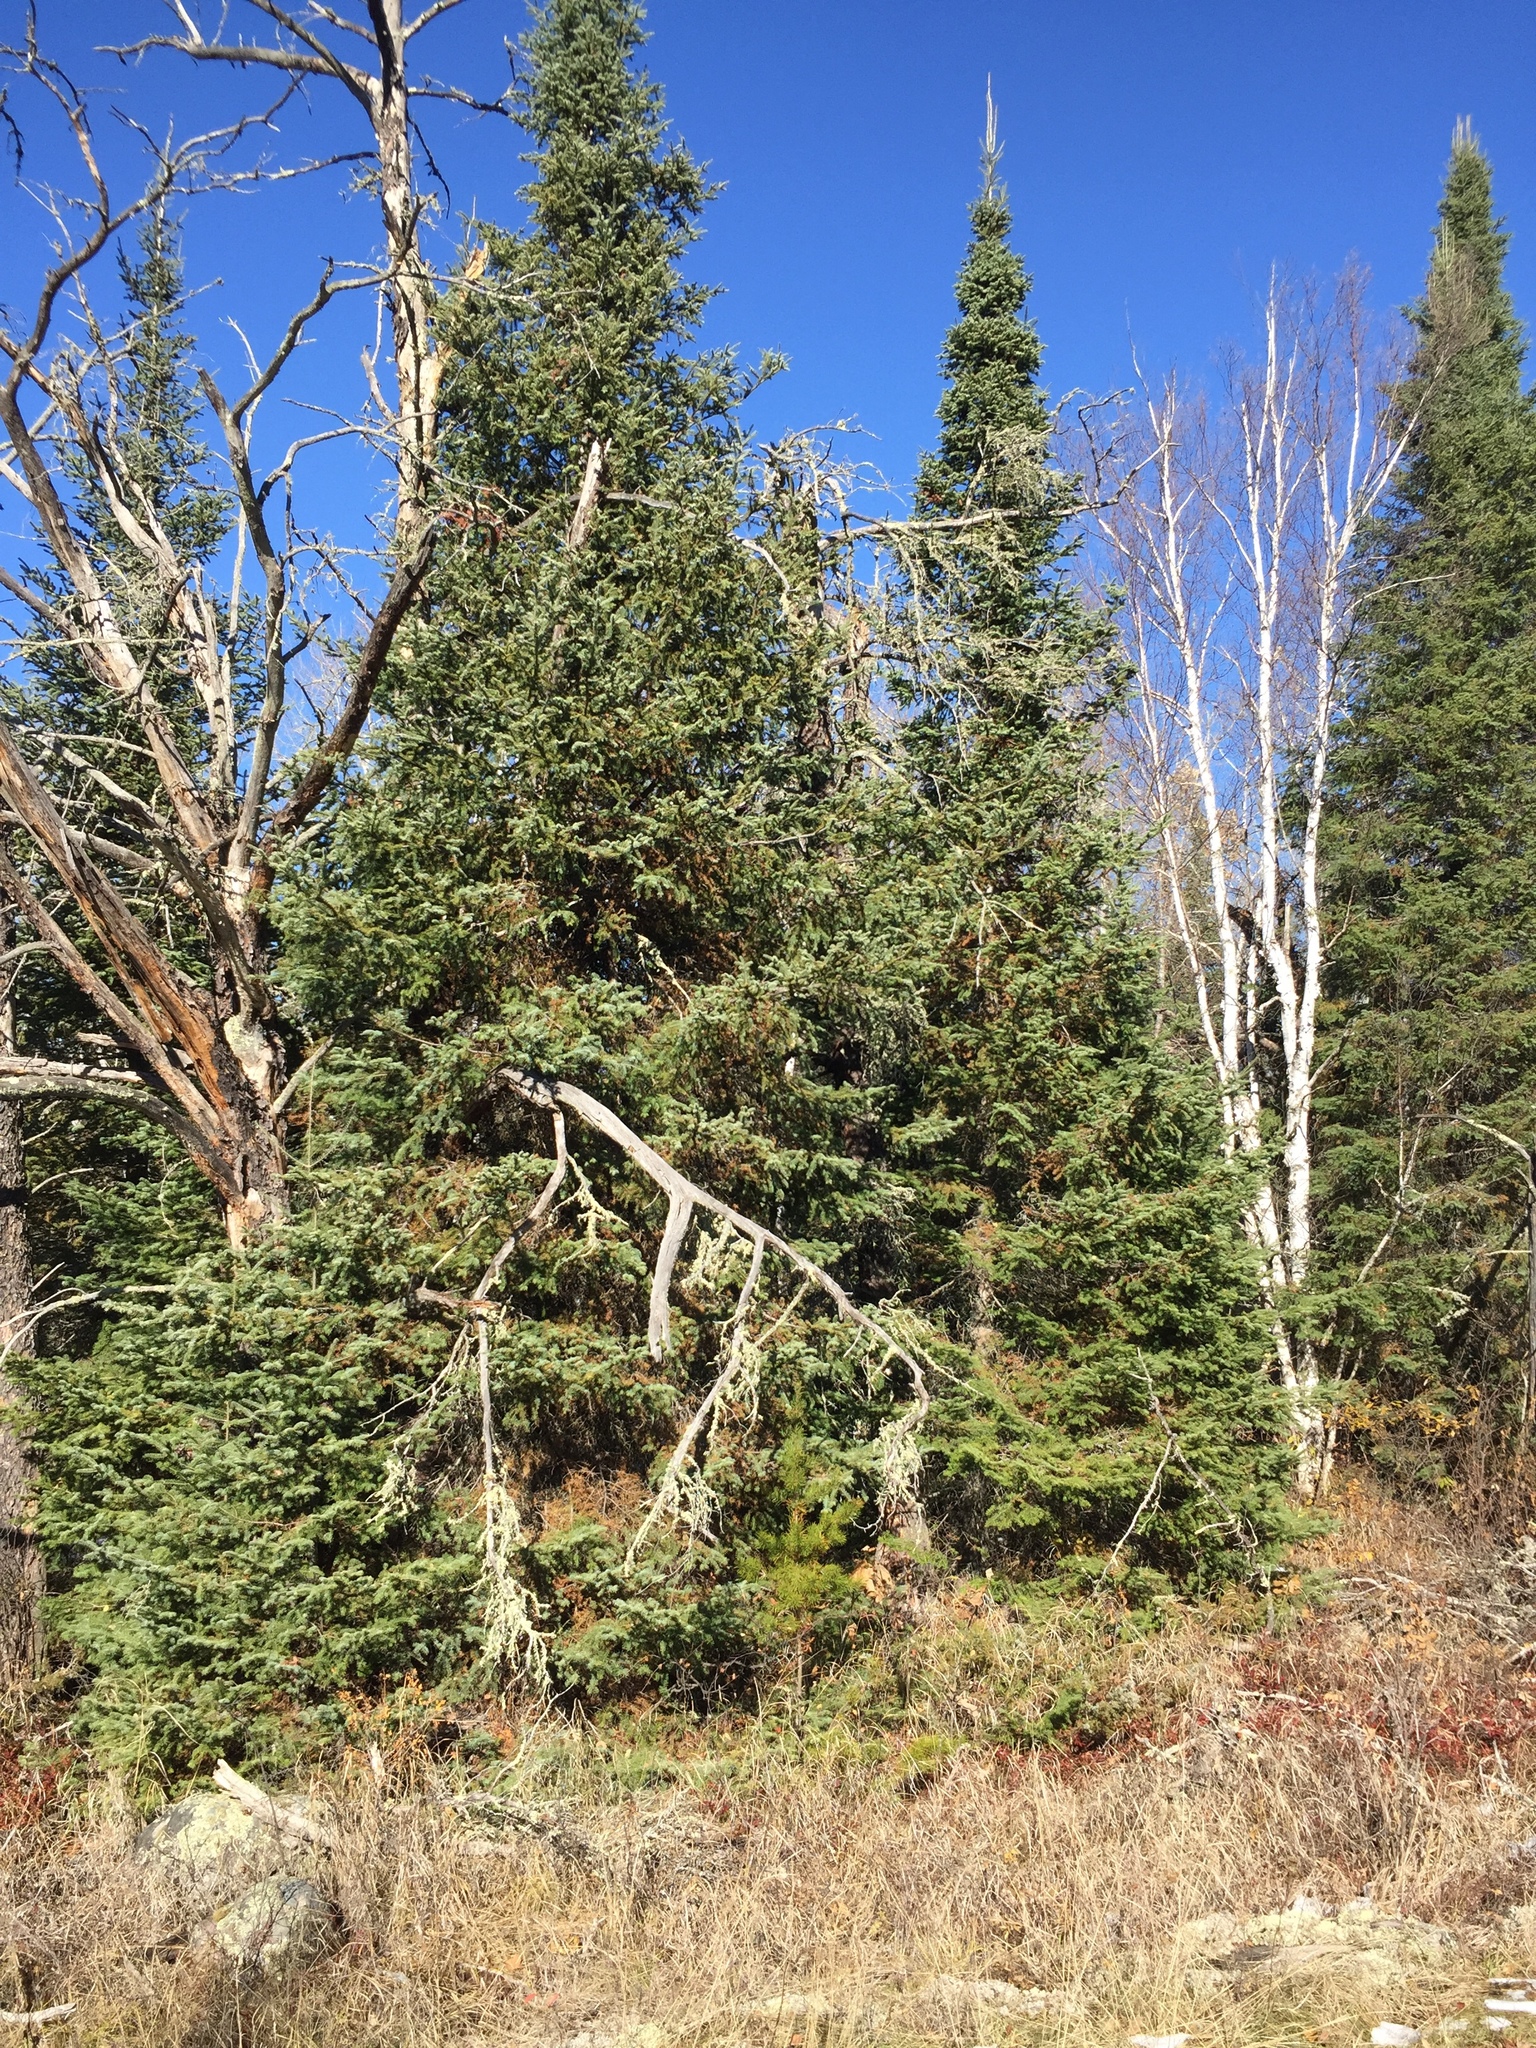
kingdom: Plantae
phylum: Tracheophyta
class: Pinopsida
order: Pinales
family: Pinaceae
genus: Picea
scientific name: Picea glauca
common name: White spruce
